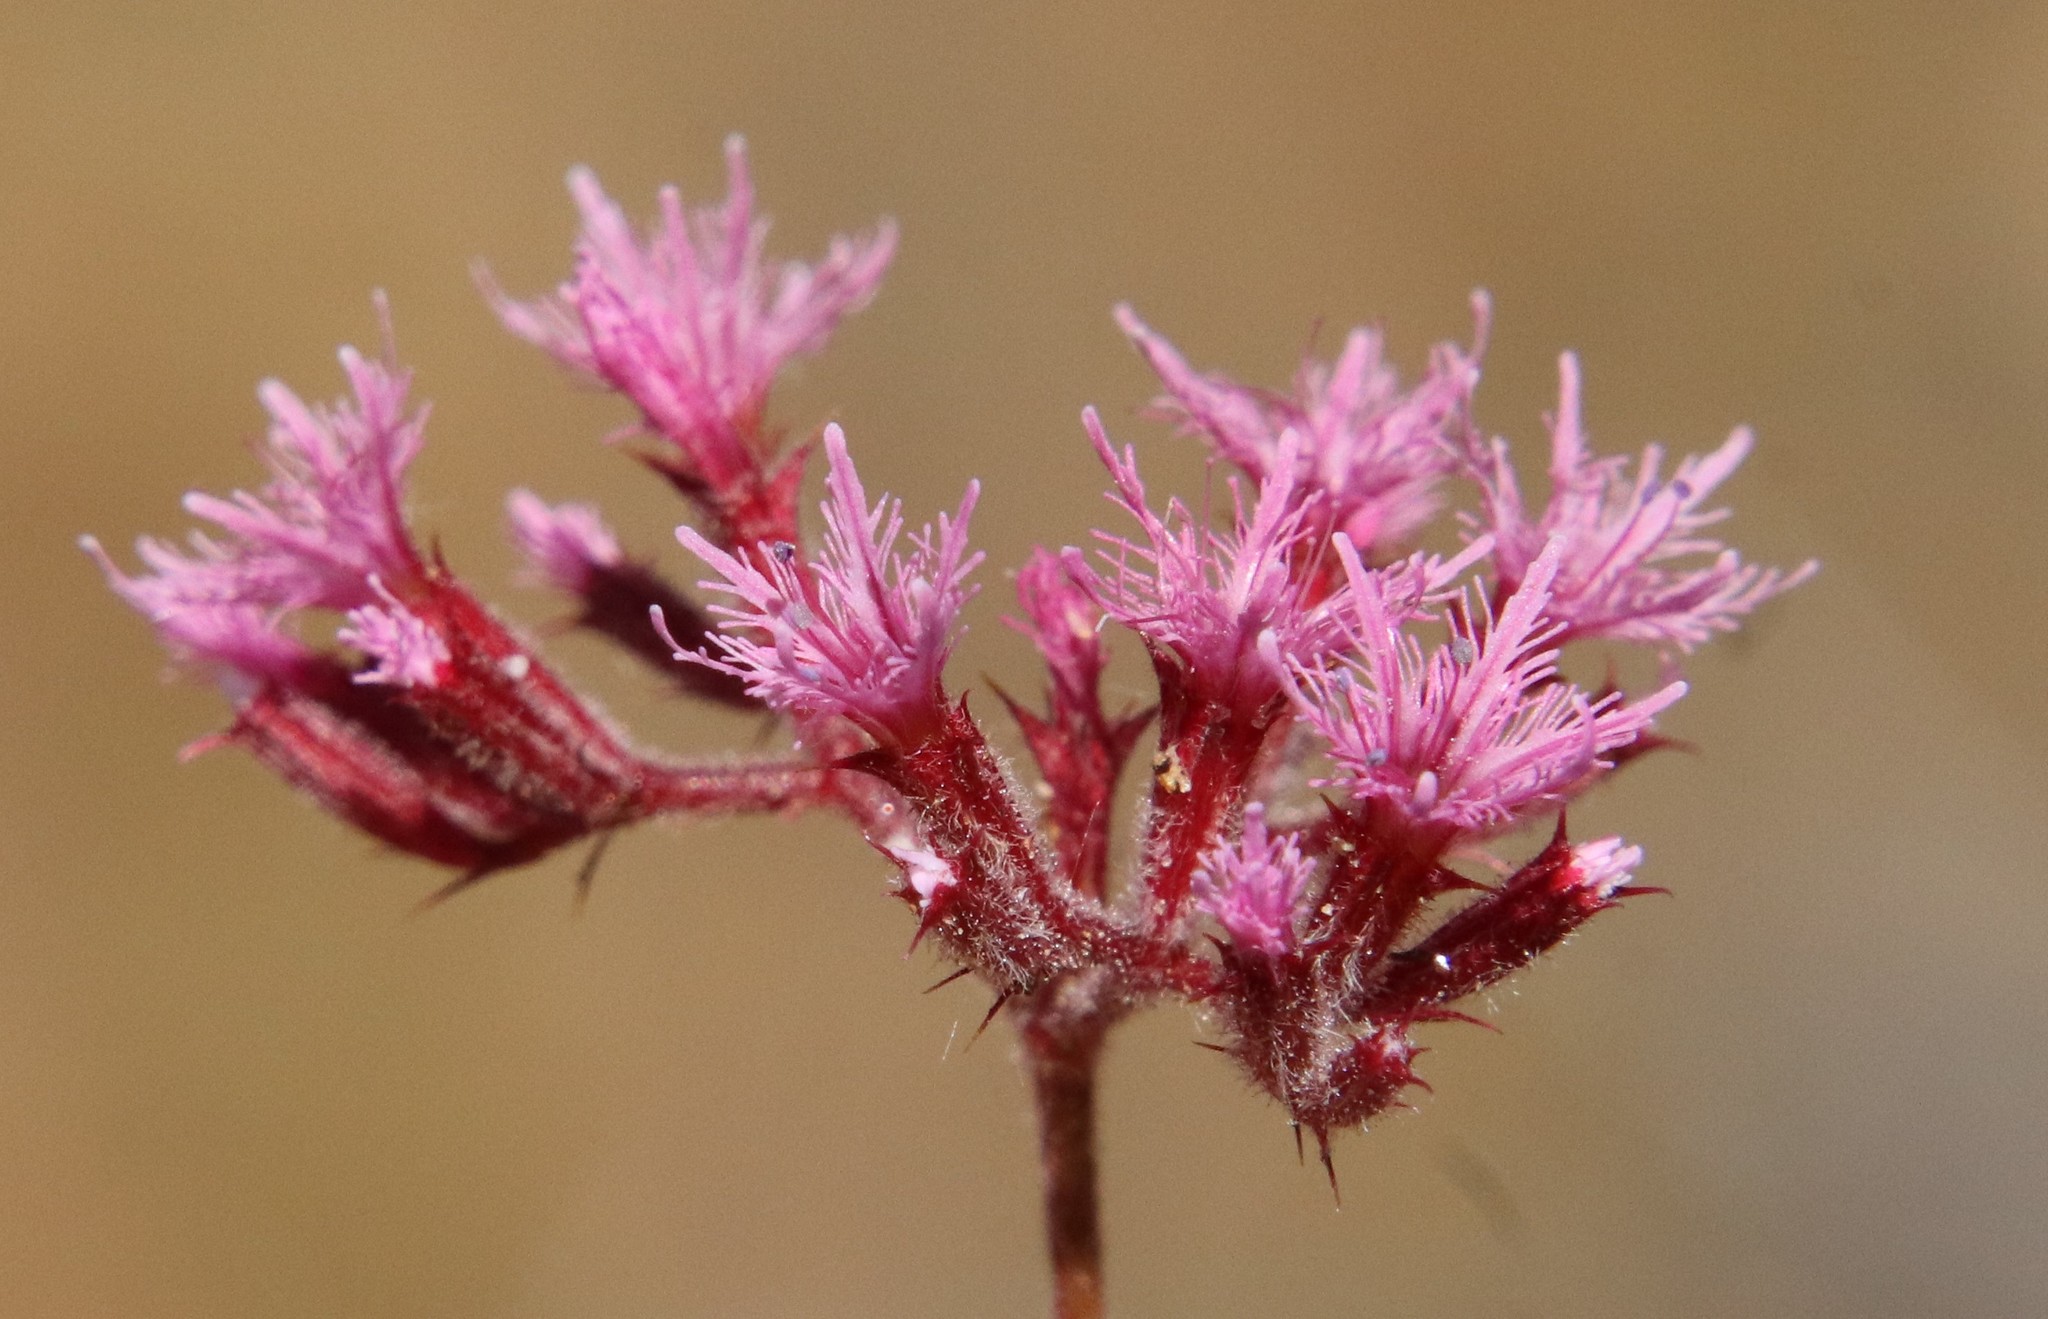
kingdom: Plantae
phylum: Tracheophyta
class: Magnoliopsida
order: Caryophyllales
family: Polygonaceae
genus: Chorizanthe
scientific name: Chorizanthe fimbriata
